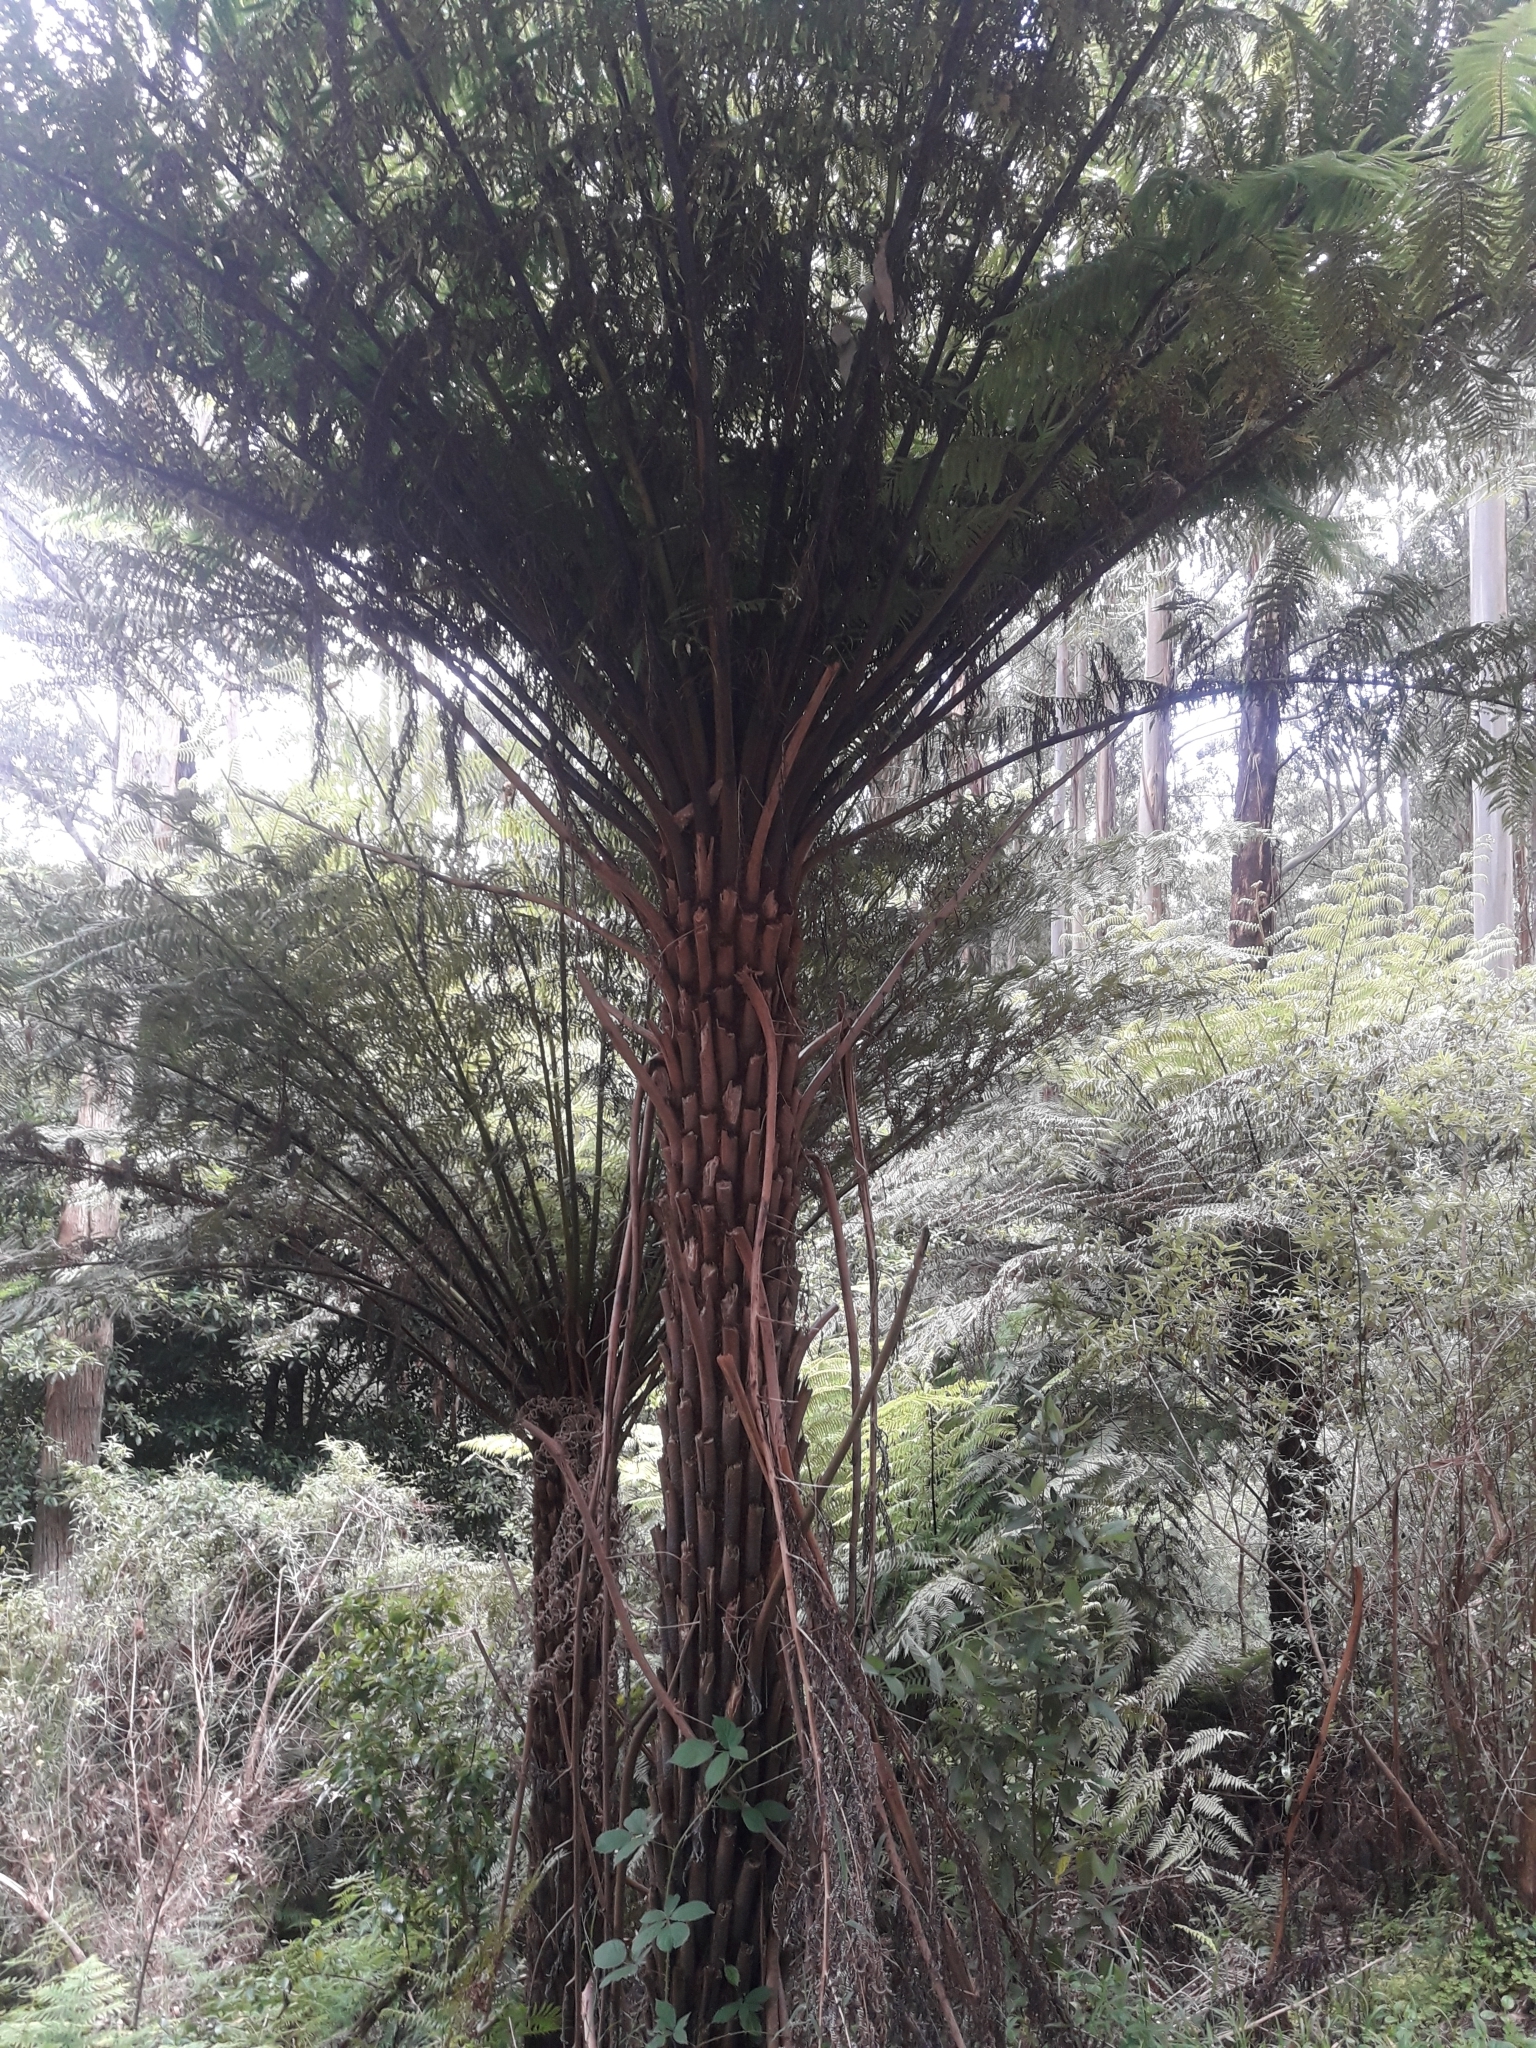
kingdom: Plantae
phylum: Tracheophyta
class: Polypodiopsida
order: Cyatheales
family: Cyatheaceae
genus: Alsophila
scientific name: Alsophila australis
